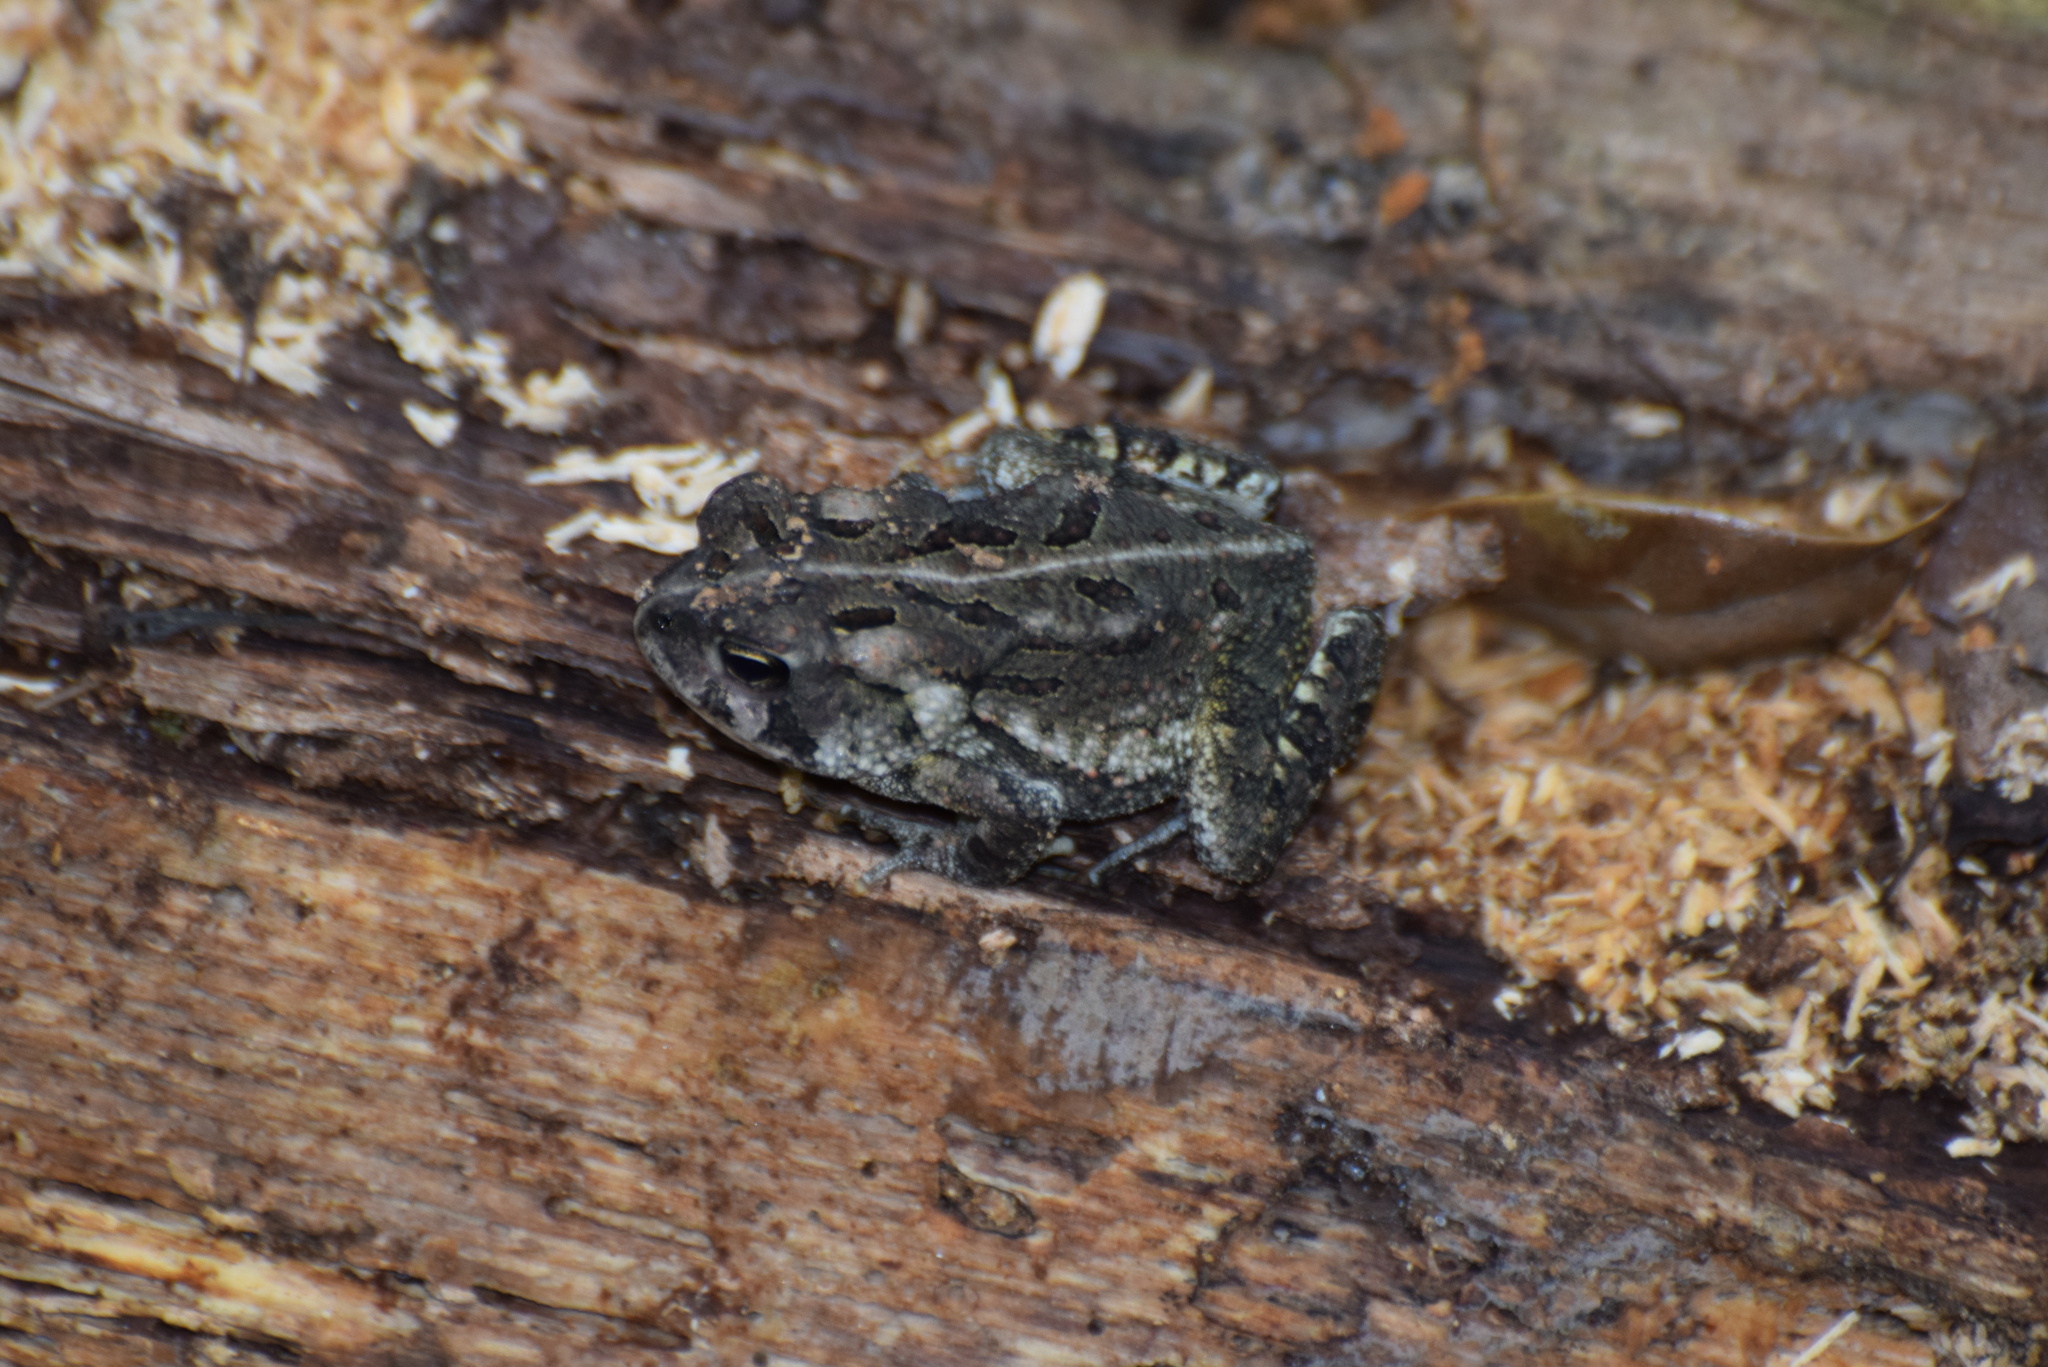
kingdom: Animalia
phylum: Chordata
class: Amphibia
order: Anura
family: Bufonidae
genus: Anaxyrus
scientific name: Anaxyrus fowleri
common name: Fowler's toad
